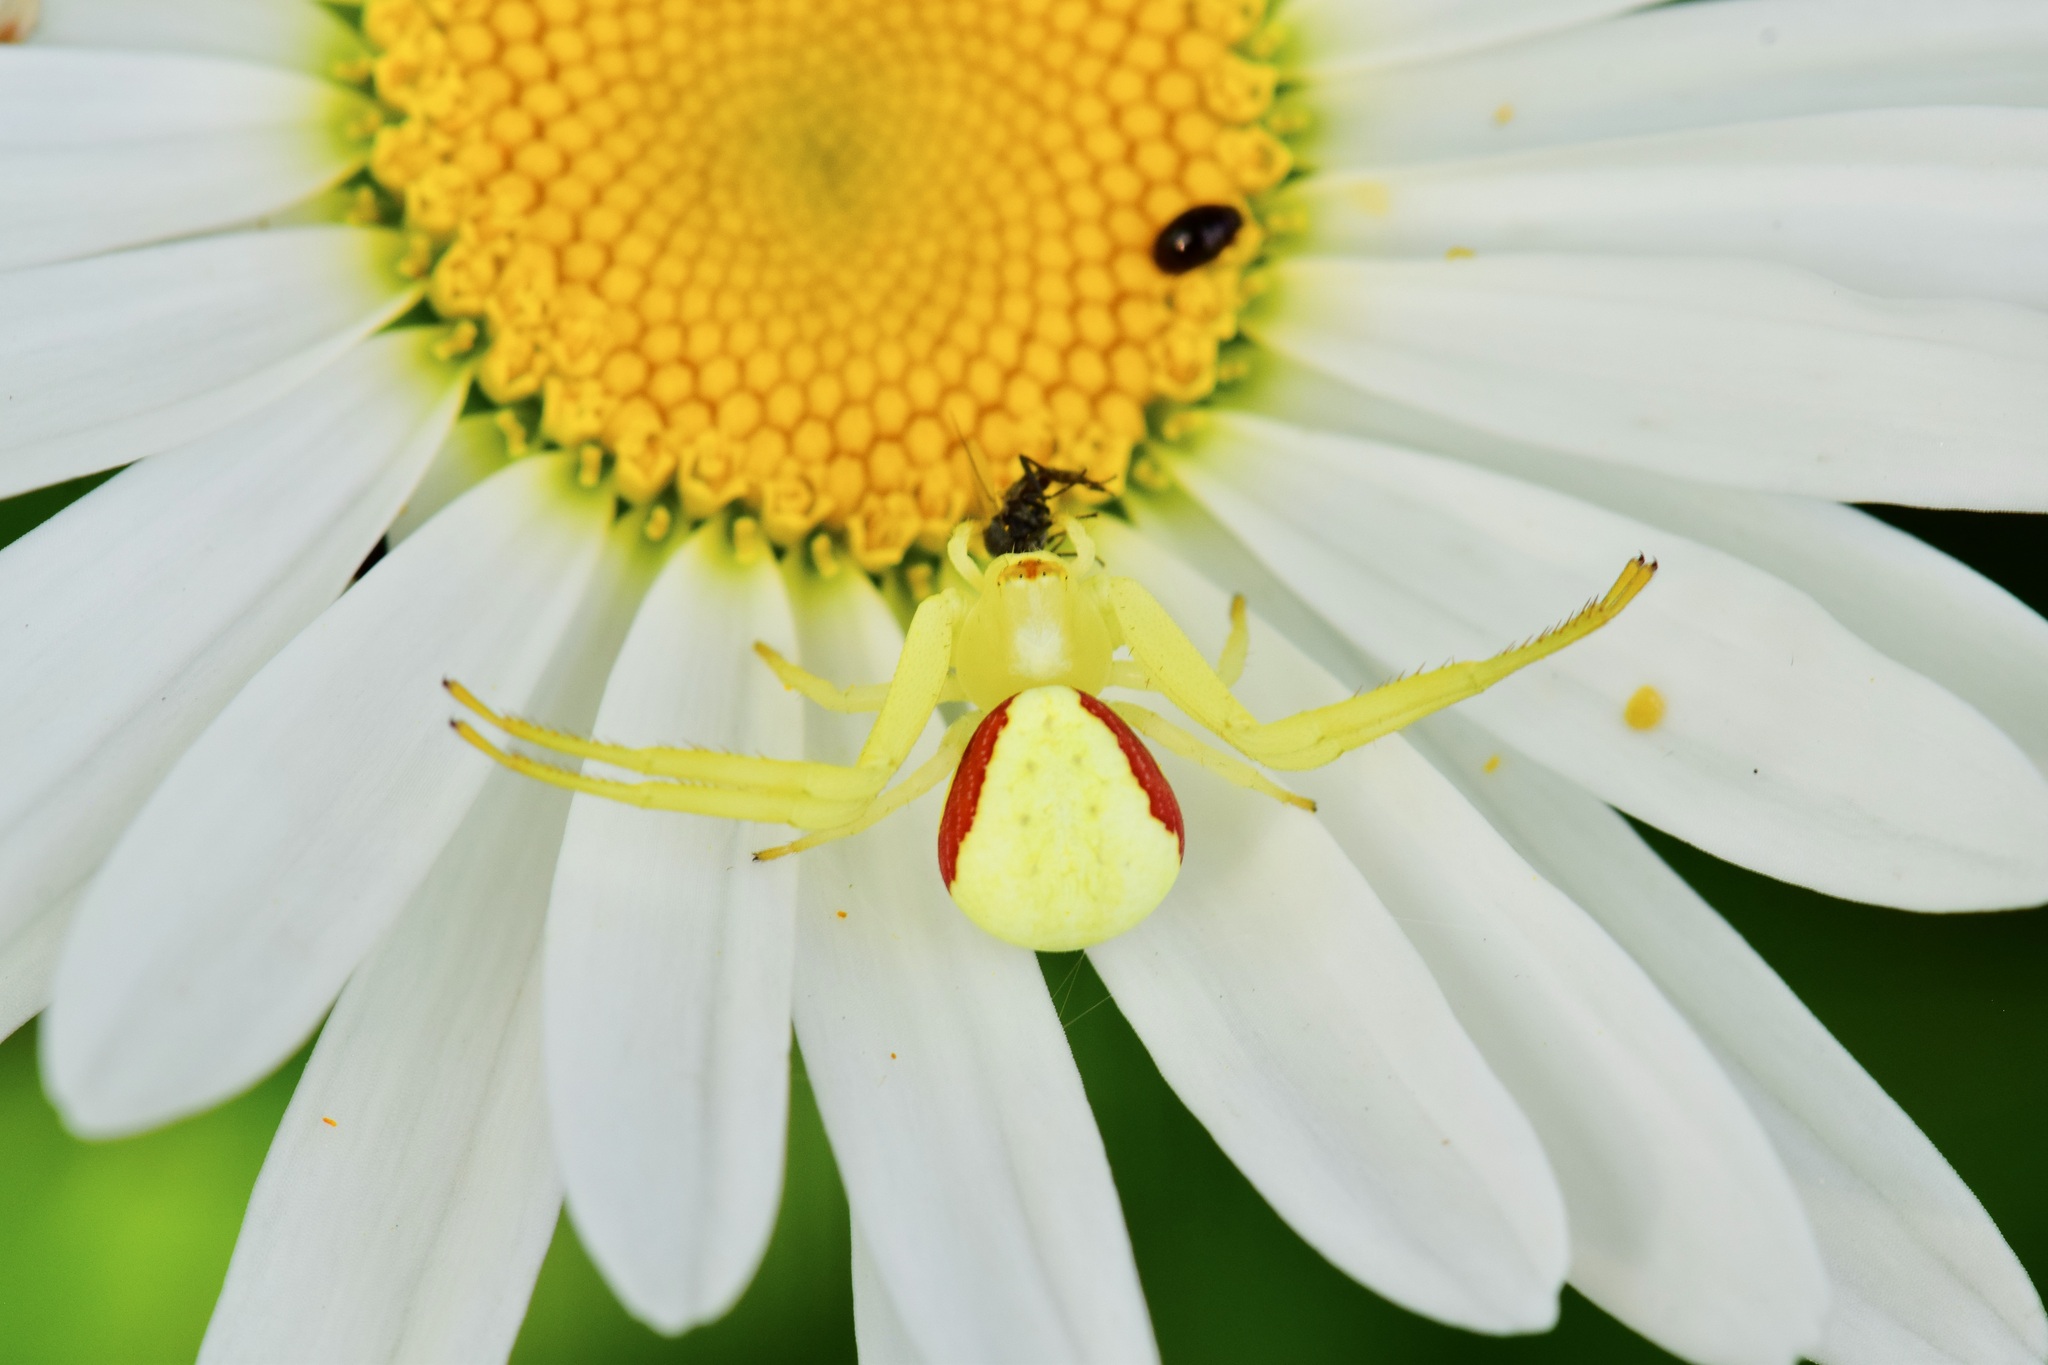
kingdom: Animalia
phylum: Arthropoda
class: Arachnida
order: Araneae
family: Thomisidae
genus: Misumena
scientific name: Misumena vatia
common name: Goldenrod crab spider
